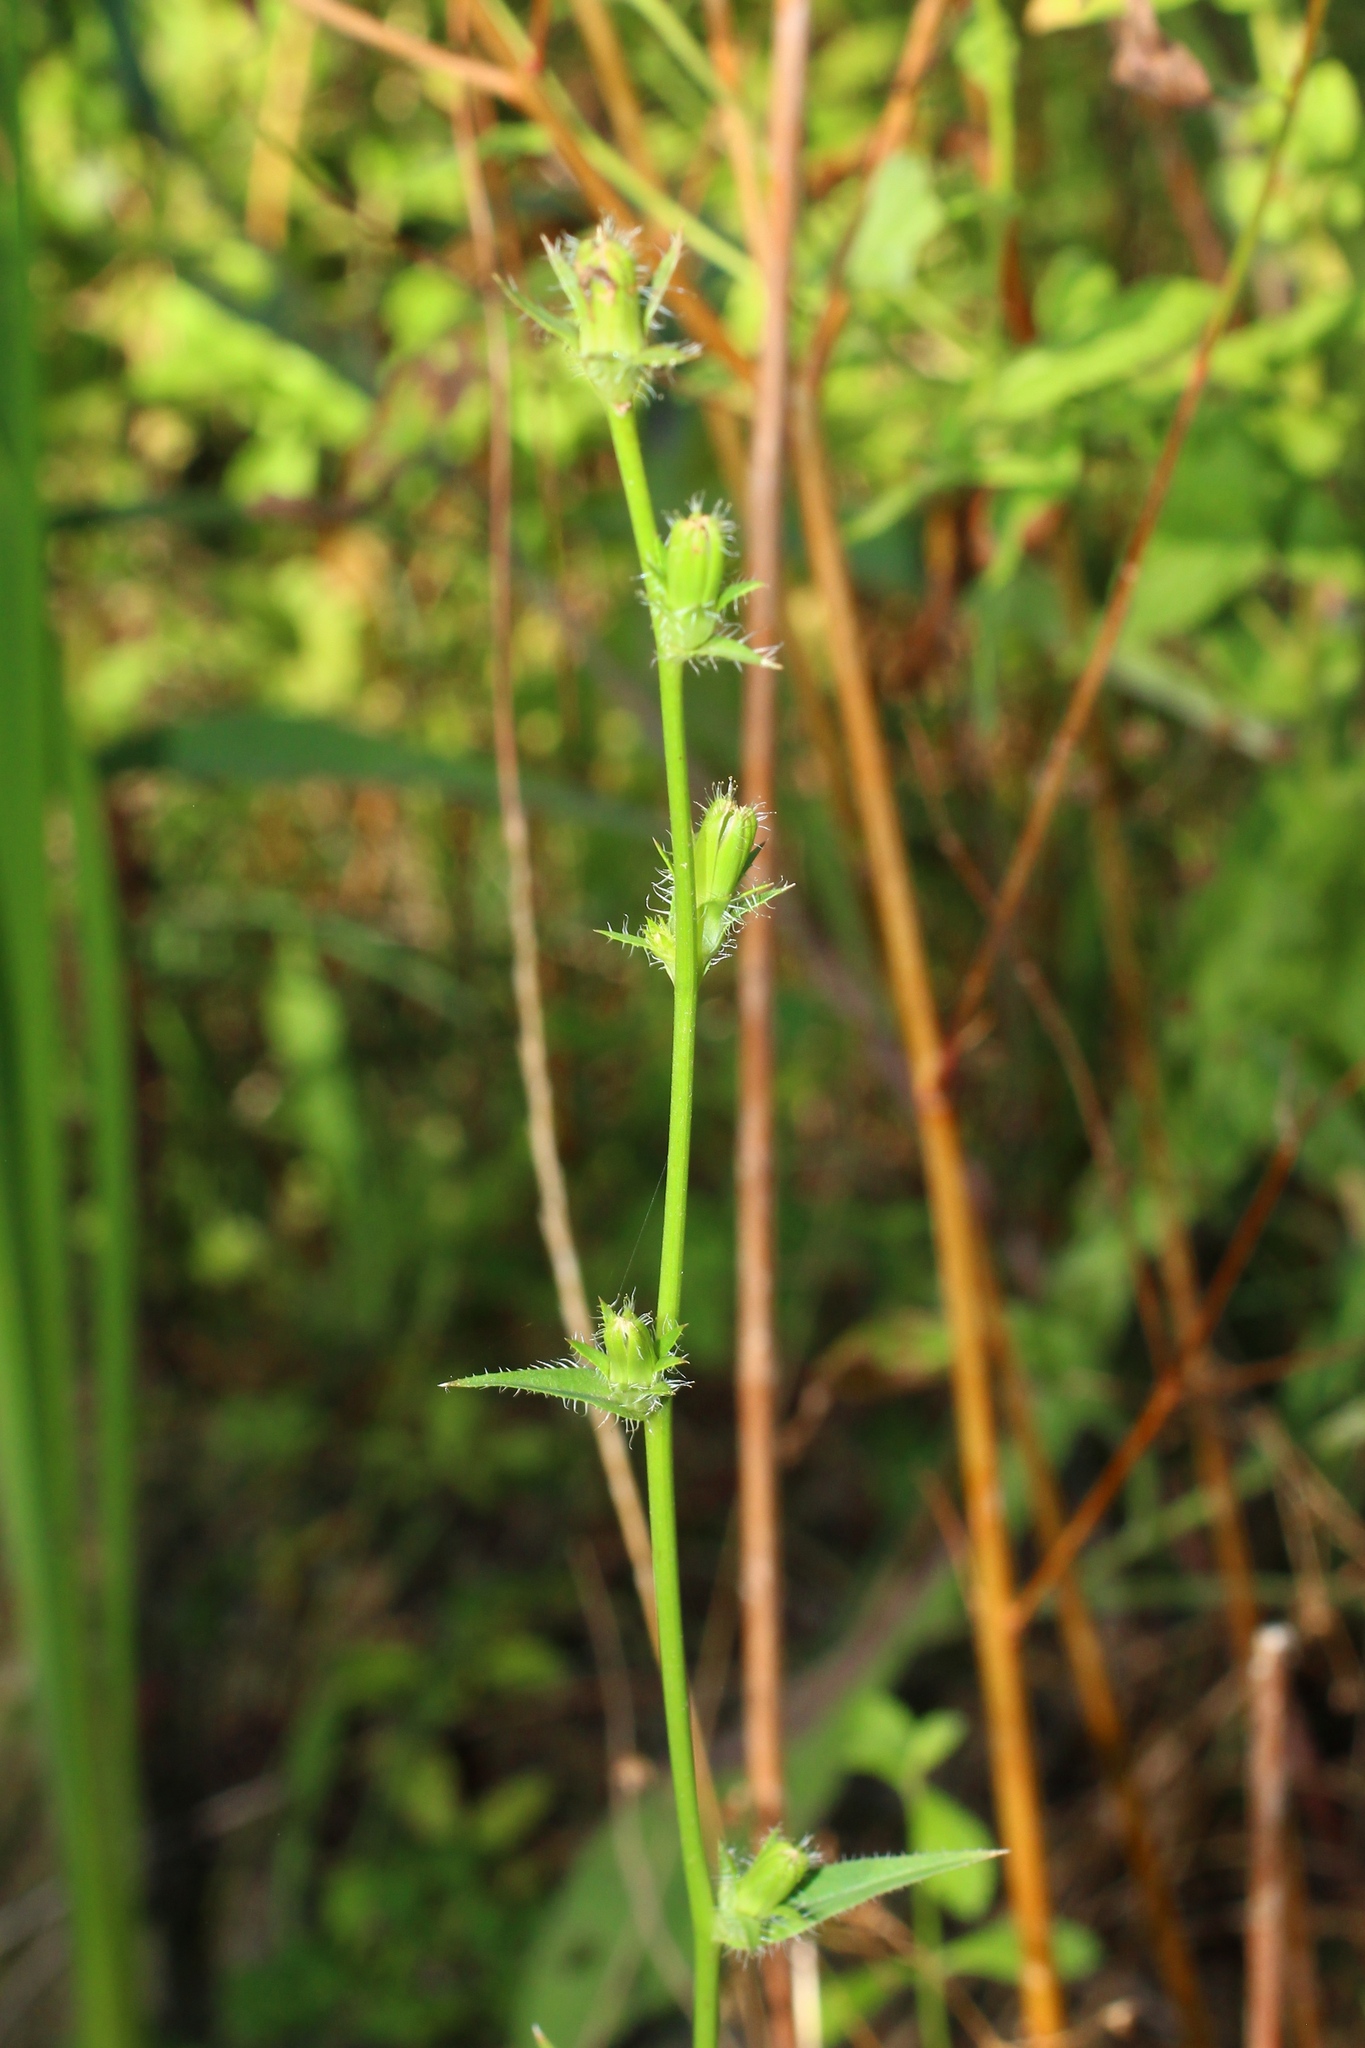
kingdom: Plantae
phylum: Tracheophyta
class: Magnoliopsida
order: Asterales
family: Asteraceae
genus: Cichorium
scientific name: Cichorium intybus
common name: Chicory
